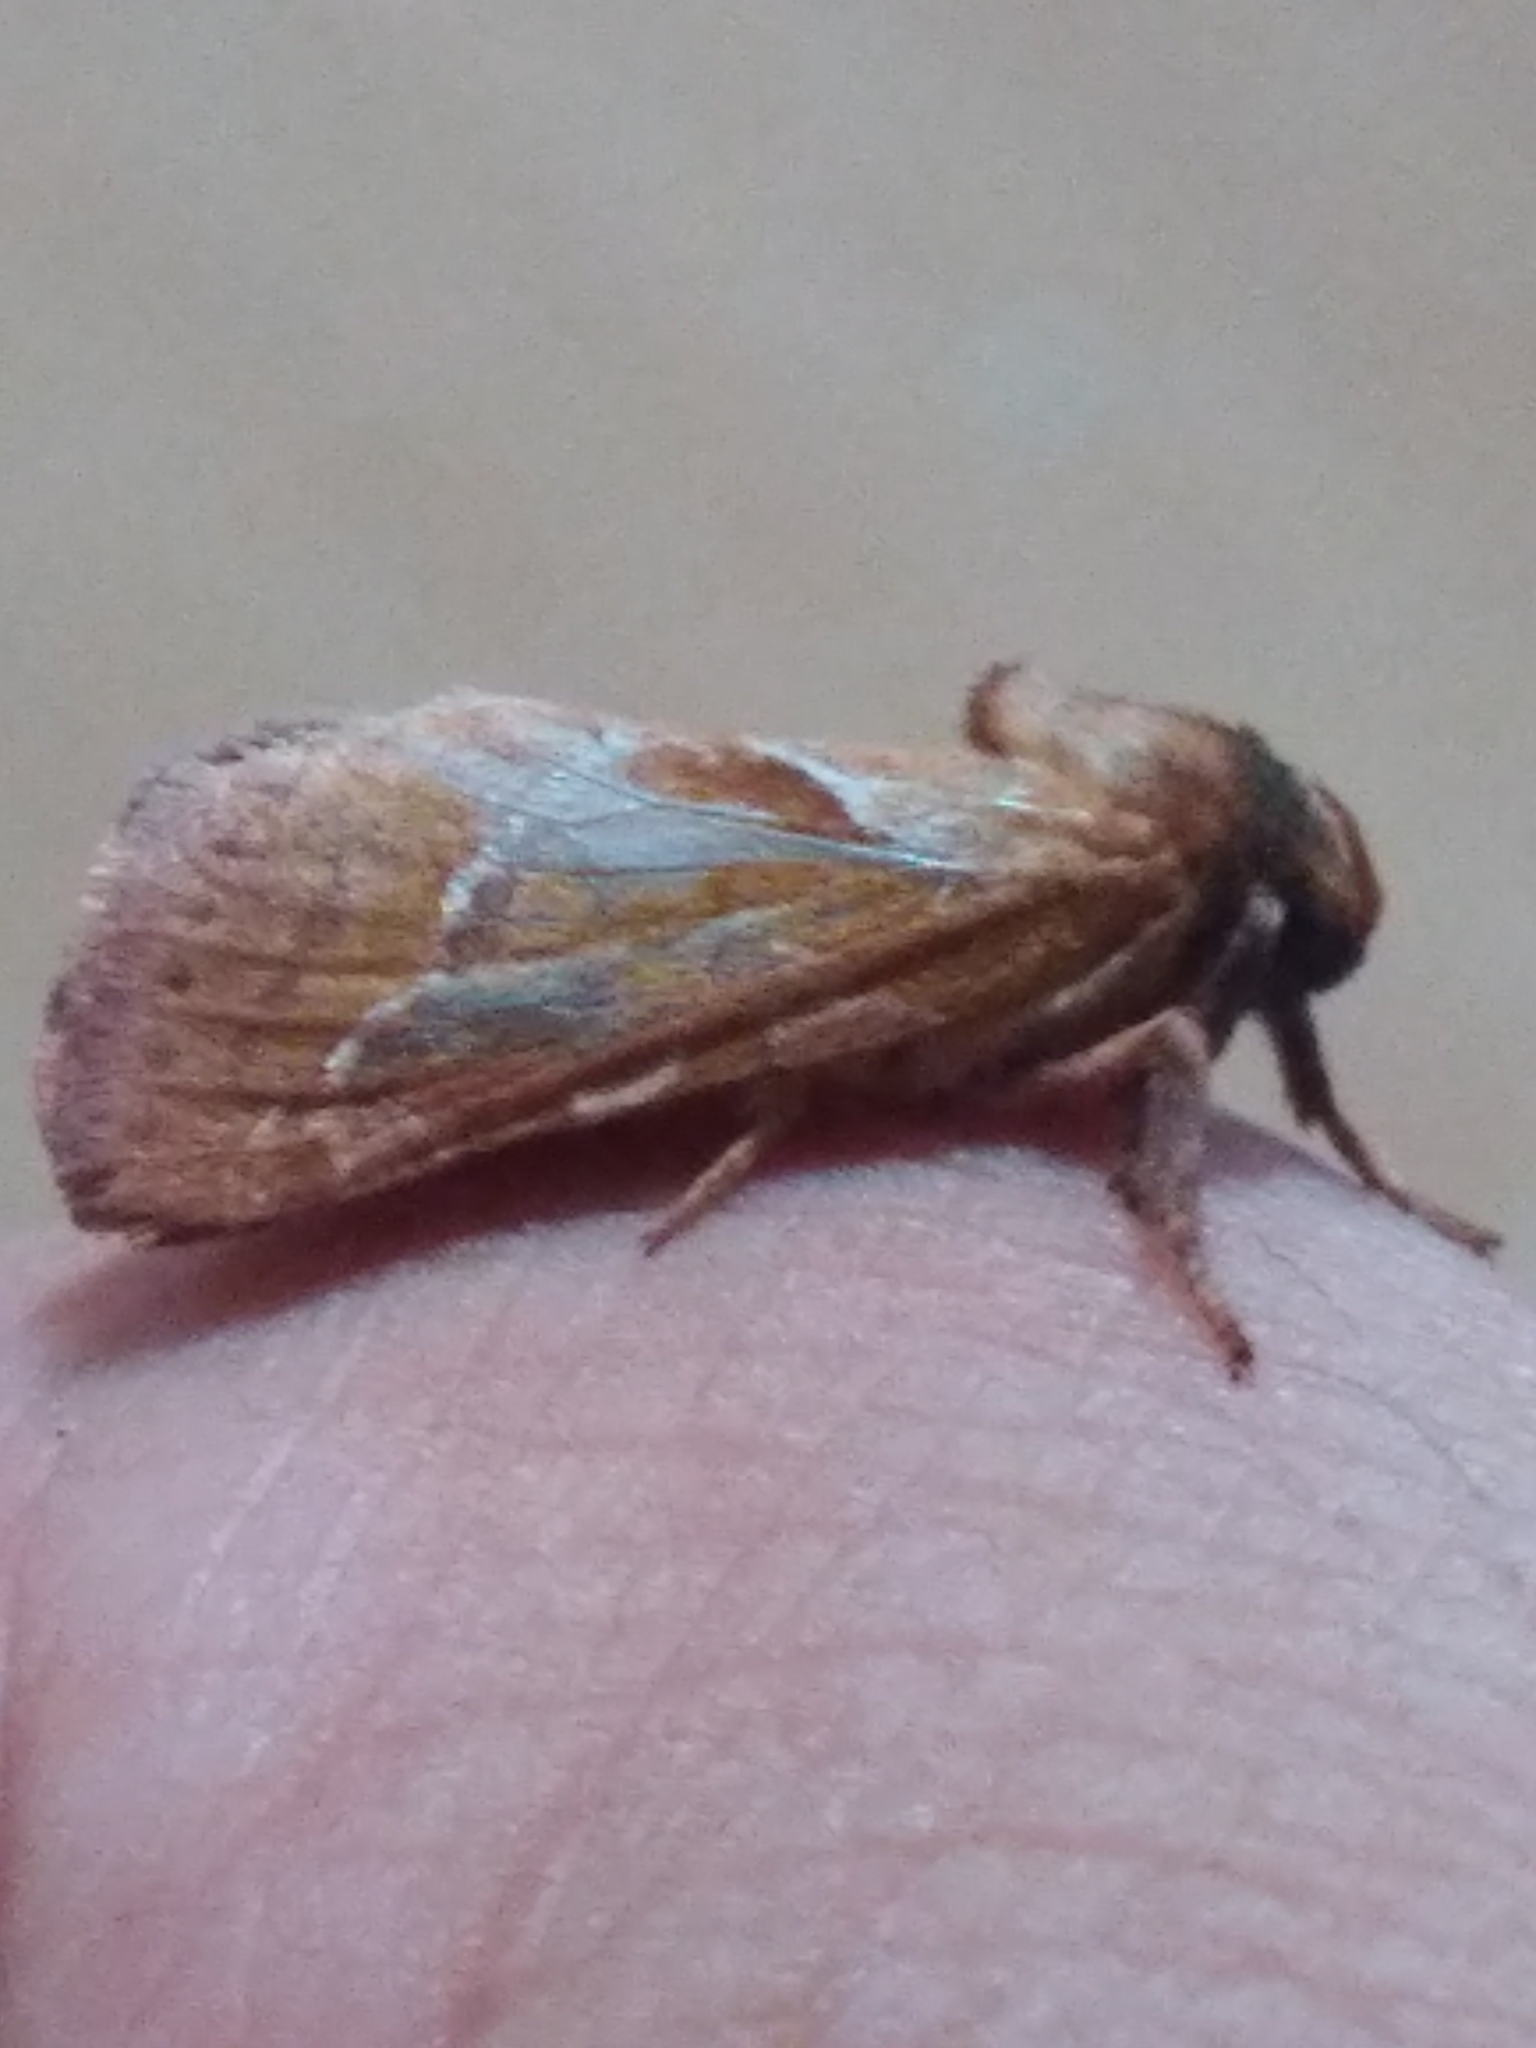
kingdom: Animalia
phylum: Arthropoda
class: Insecta
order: Lepidoptera
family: Hepialidae
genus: Triodia
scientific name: Triodia sylvina
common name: Orange swift
